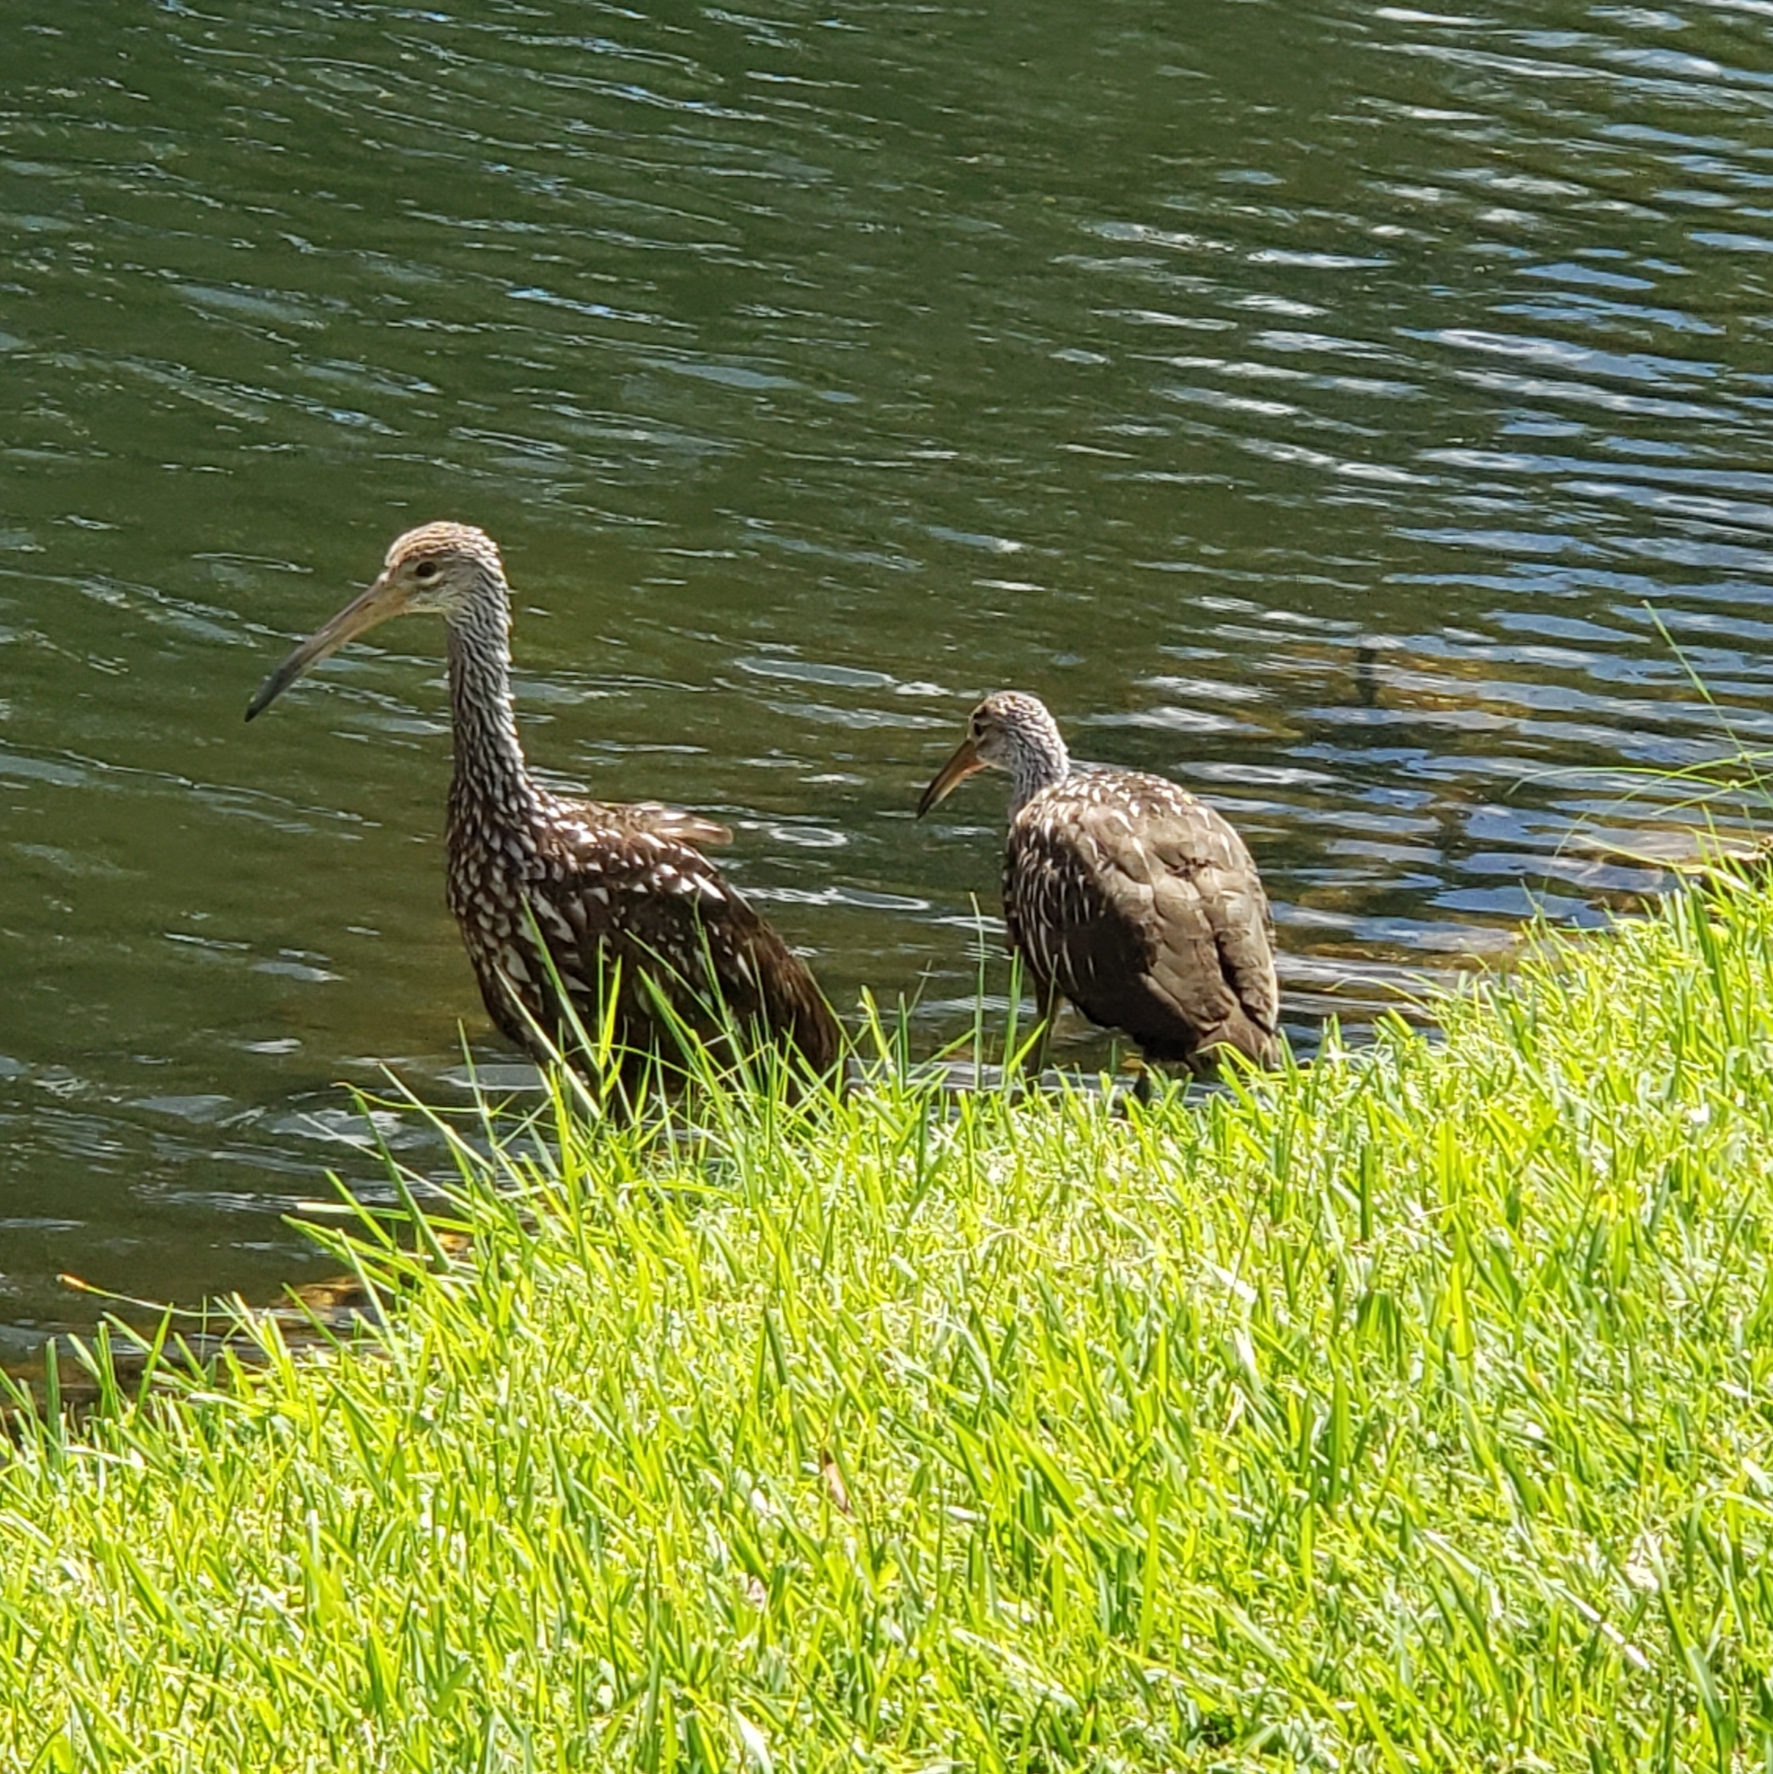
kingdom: Animalia
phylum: Chordata
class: Aves
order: Gruiformes
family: Aramidae
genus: Aramus
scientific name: Aramus guarauna
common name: Limpkin
